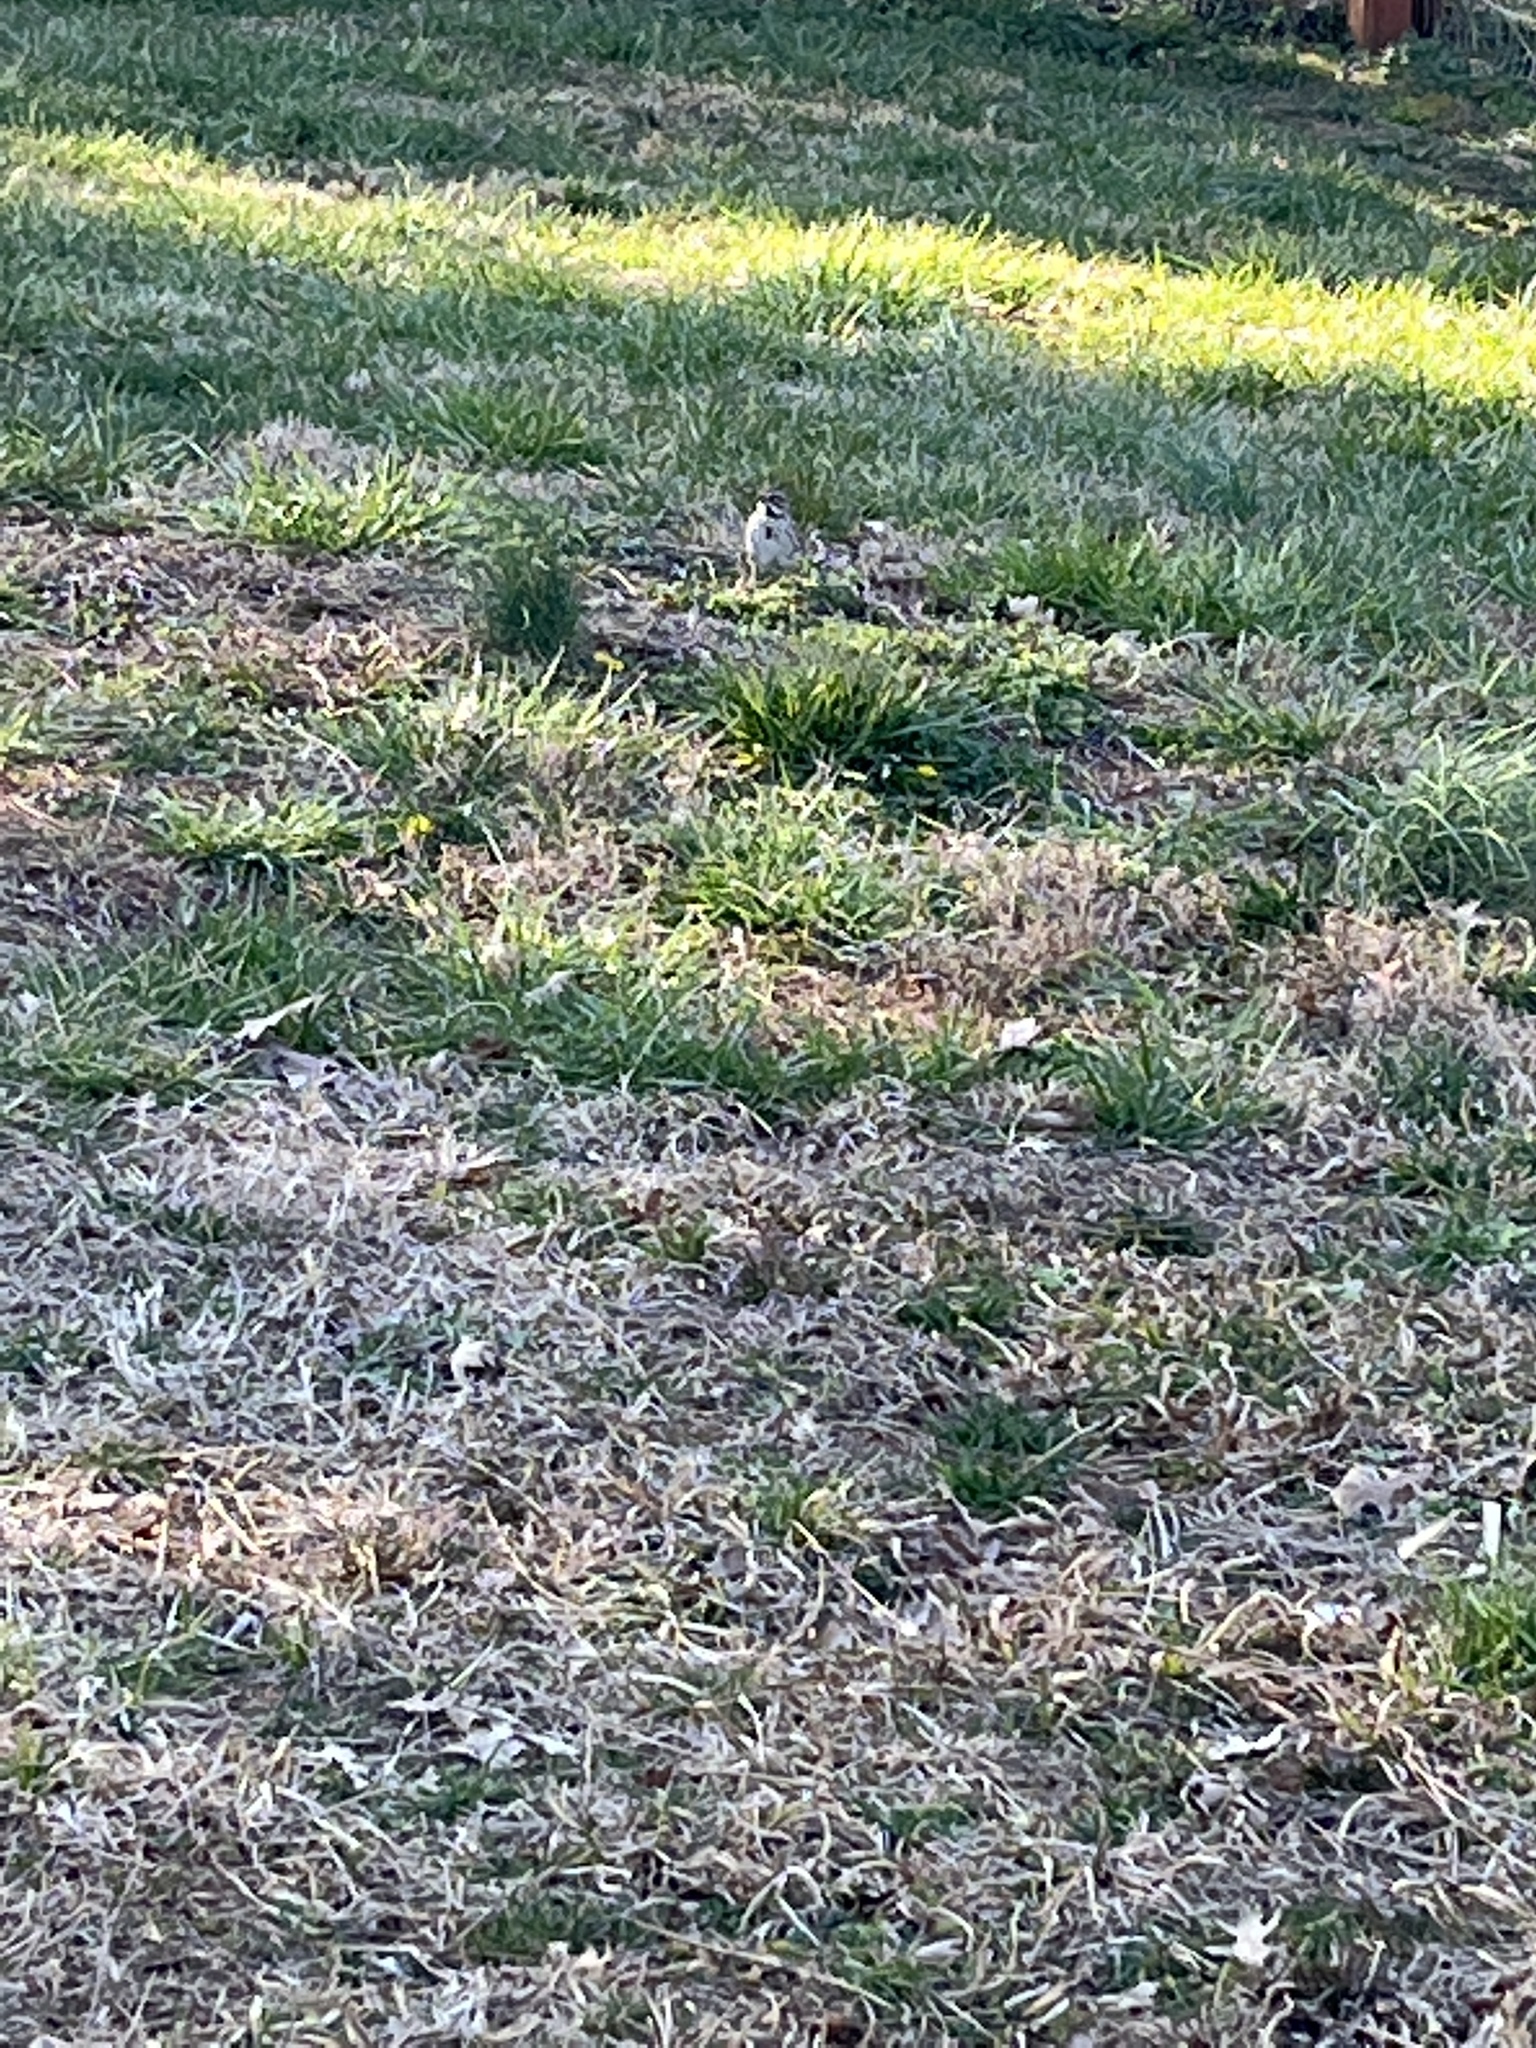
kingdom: Animalia
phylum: Chordata
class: Aves
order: Passeriformes
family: Passerellidae
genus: Melospiza
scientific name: Melospiza melodia
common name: Song sparrow
